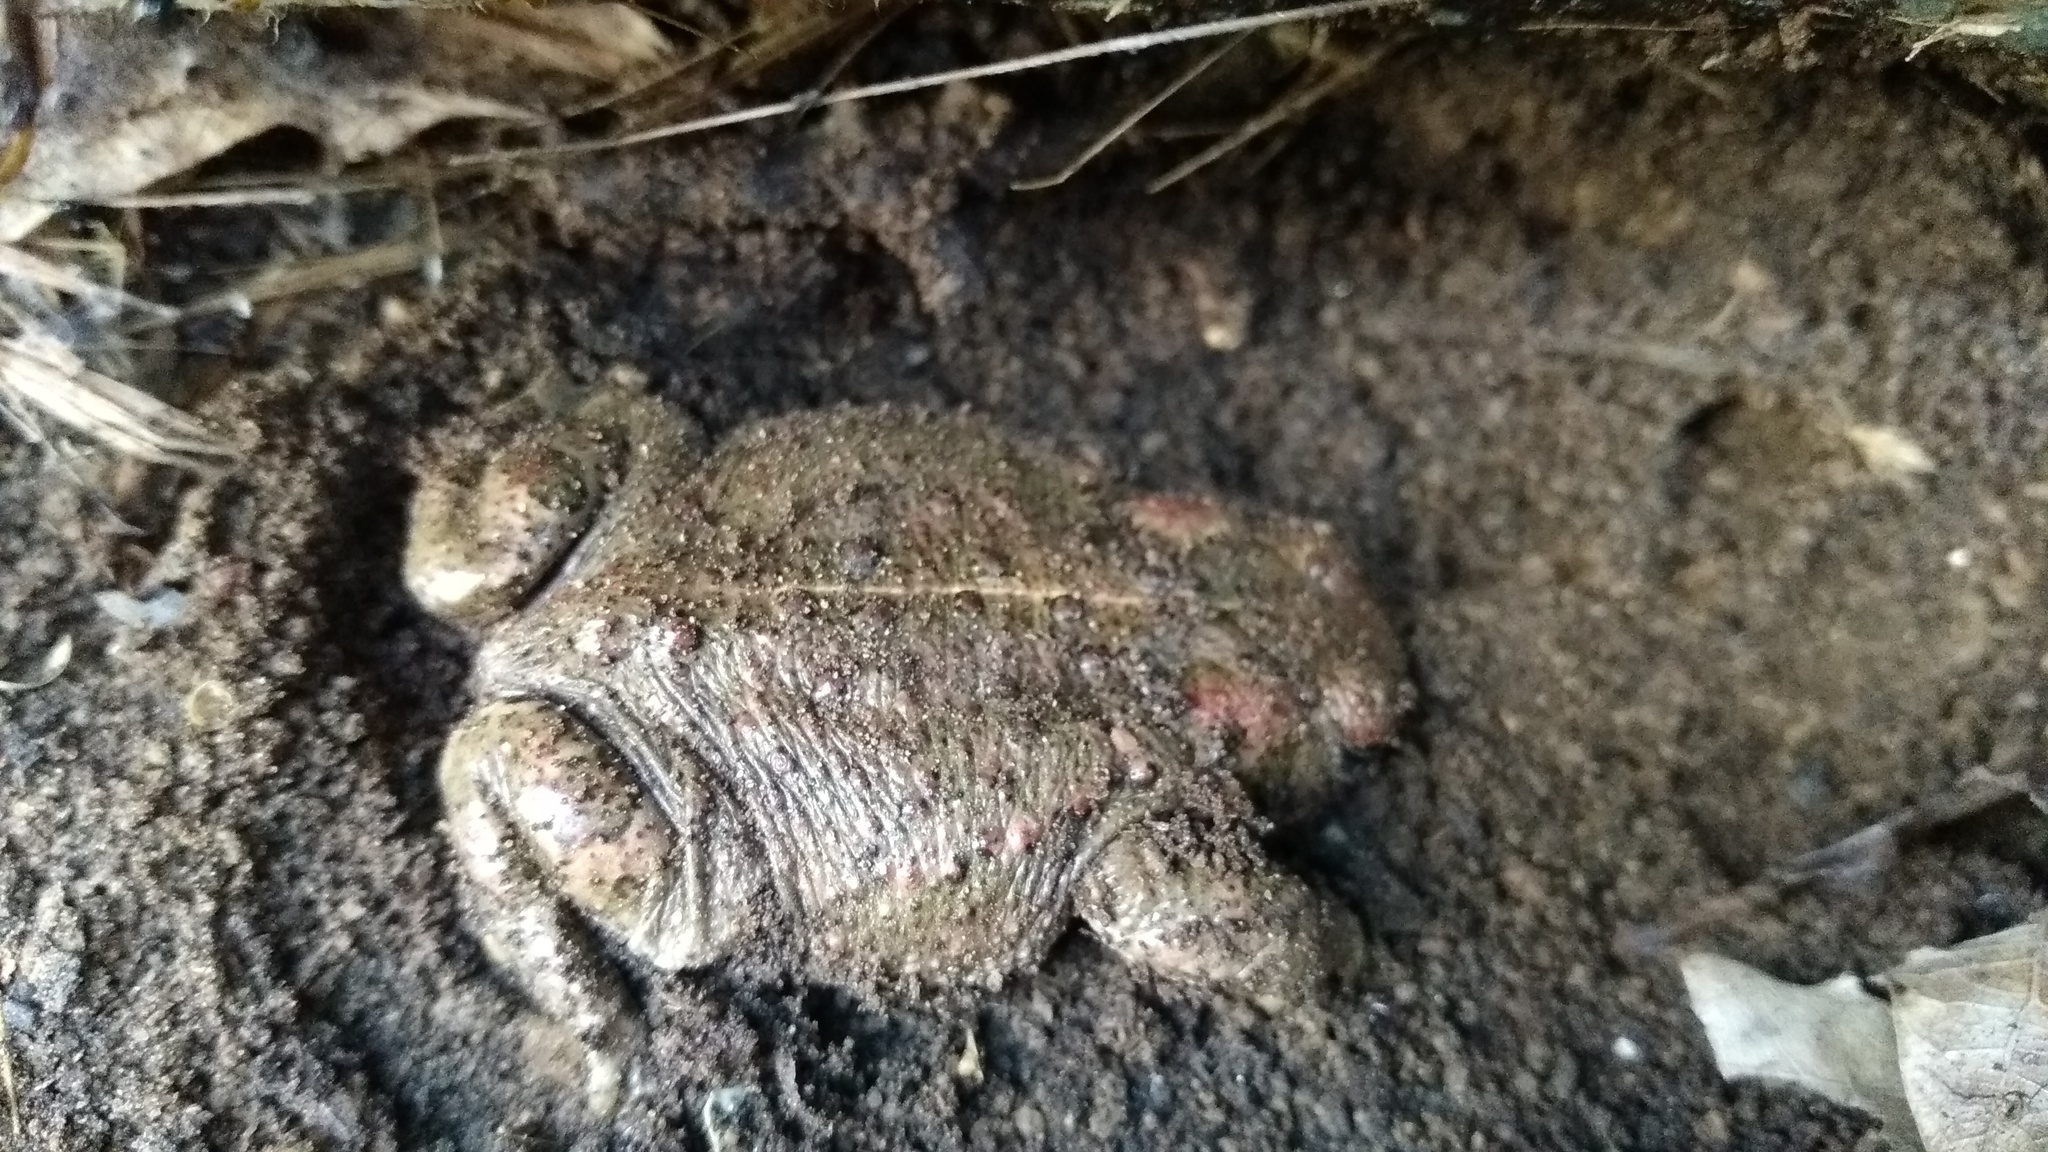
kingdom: Animalia
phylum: Chordata
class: Amphibia
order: Anura
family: Bufonidae
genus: Epidalea
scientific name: Epidalea calamita
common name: Natterjack toad
